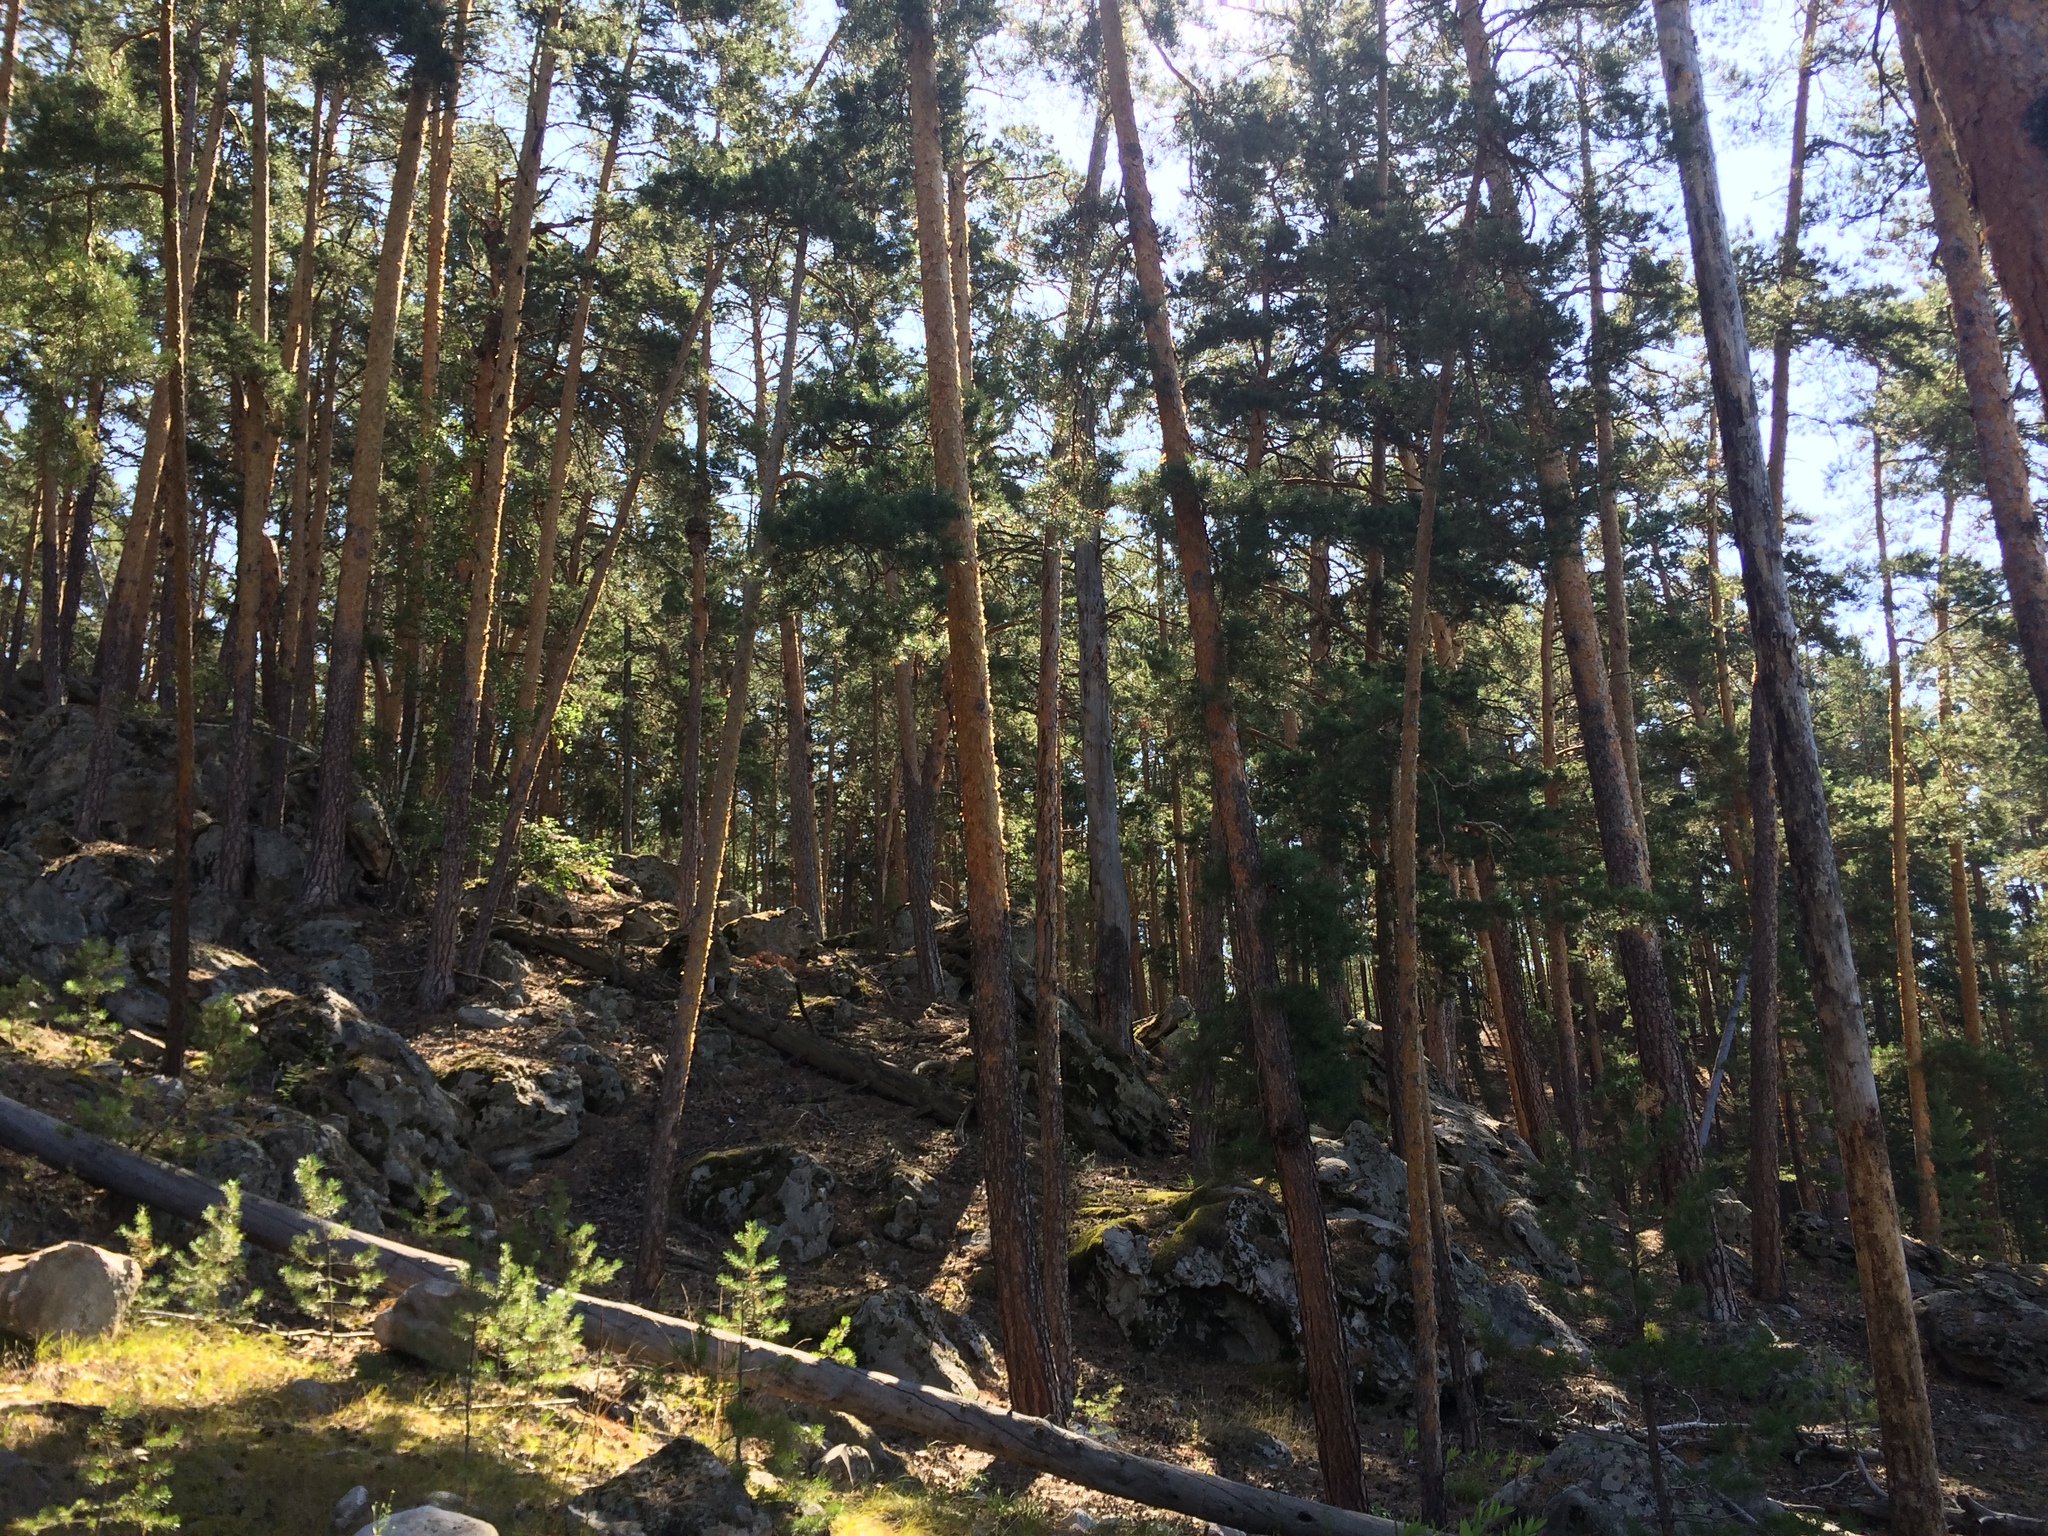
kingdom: Plantae
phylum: Tracheophyta
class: Pinopsida
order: Pinales
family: Pinaceae
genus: Pinus
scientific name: Pinus sylvestris
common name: Scots pine
